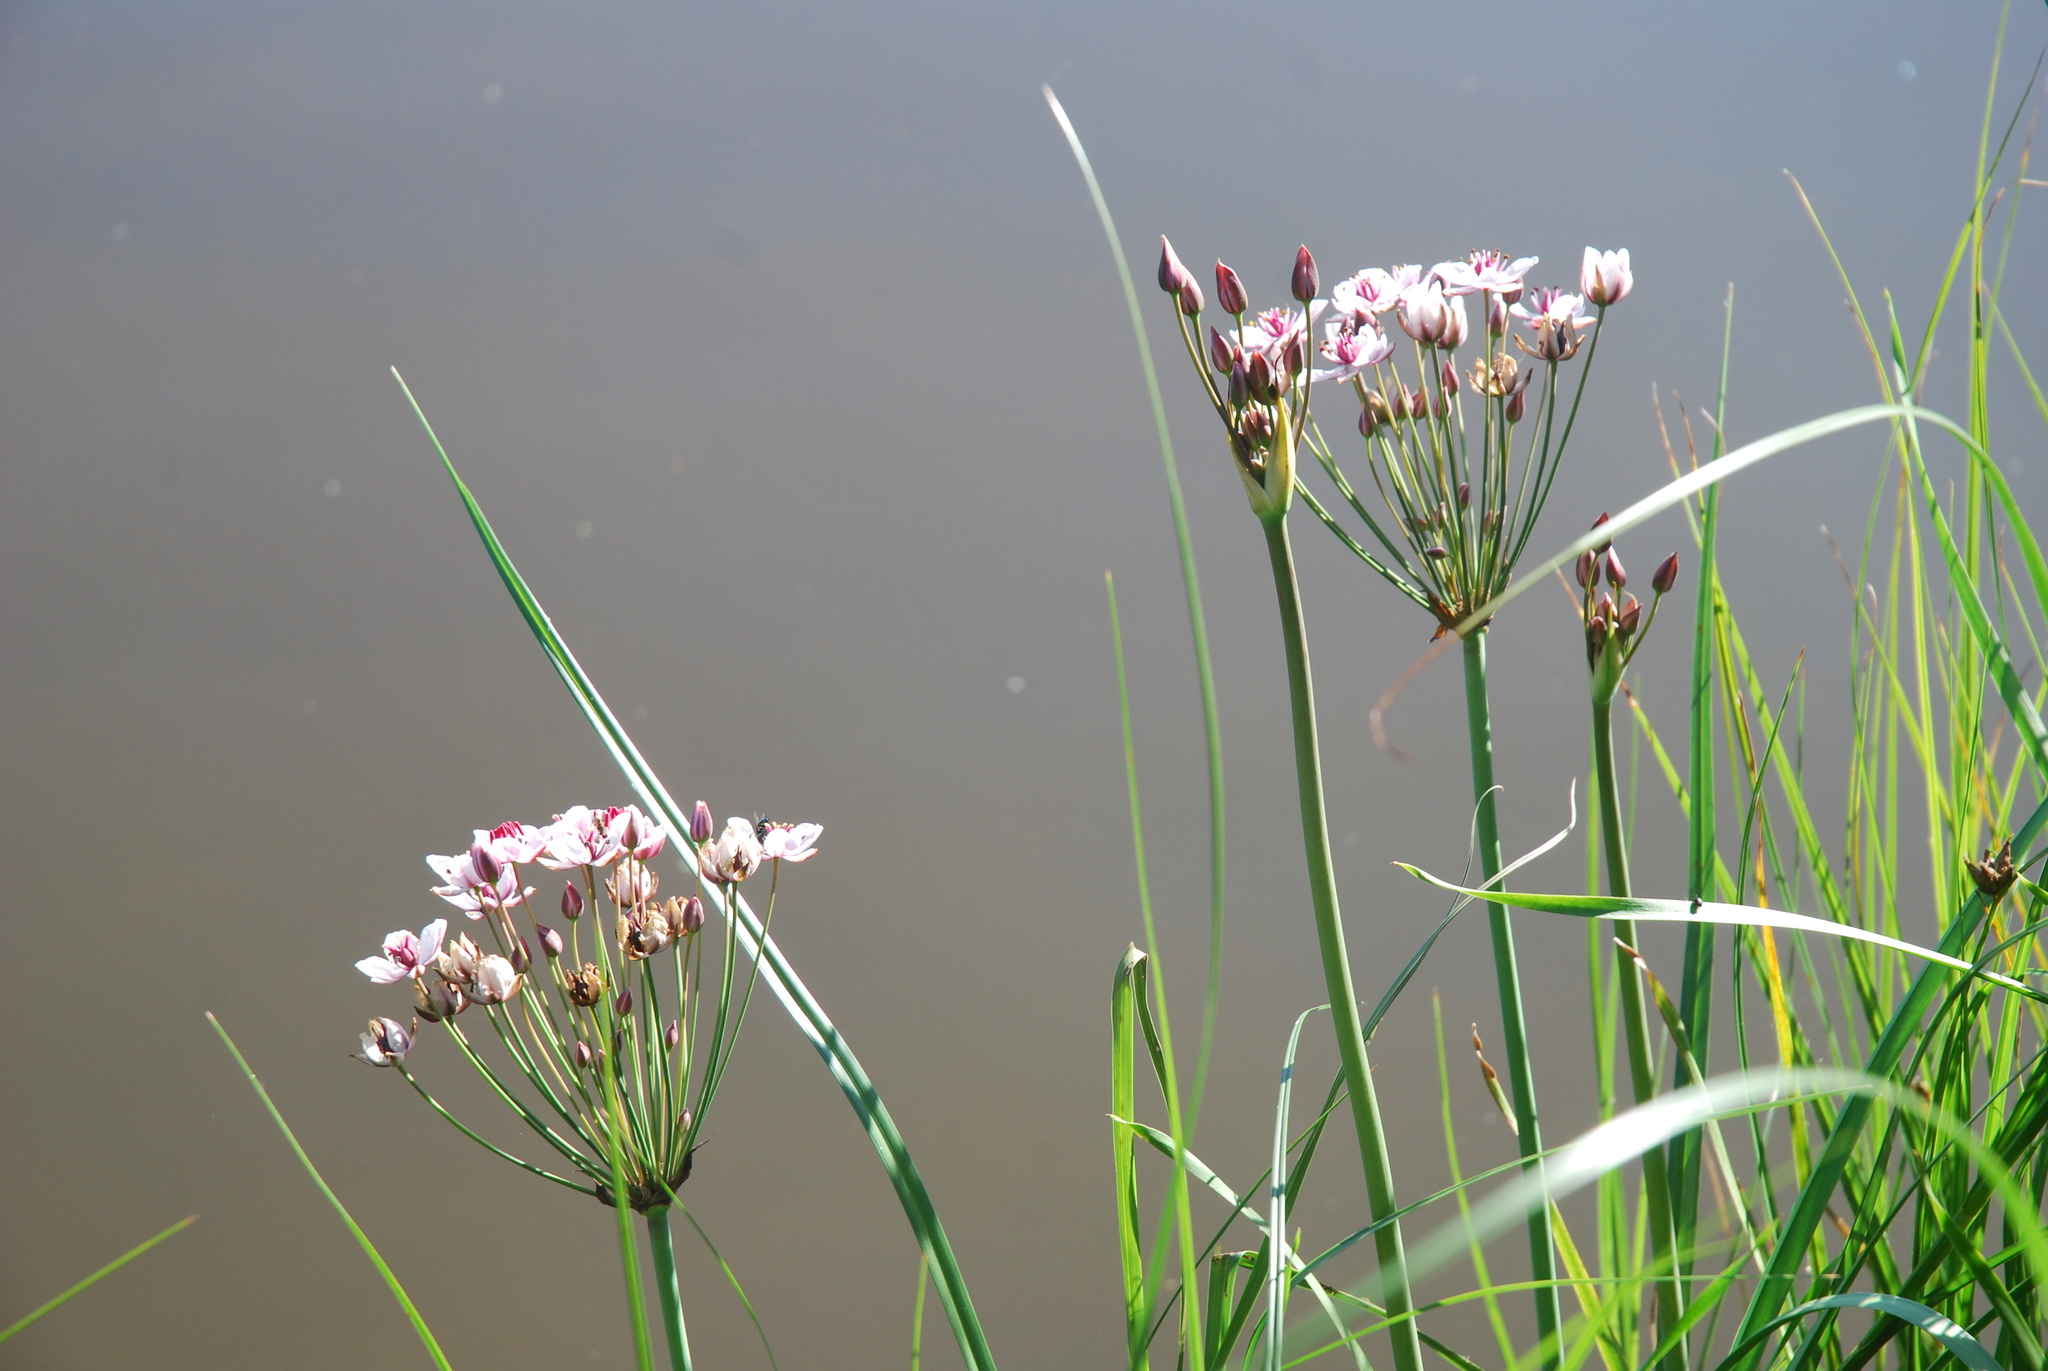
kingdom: Plantae
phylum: Tracheophyta
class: Liliopsida
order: Alismatales
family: Butomaceae
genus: Butomus
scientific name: Butomus umbellatus
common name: Flowering-rush
